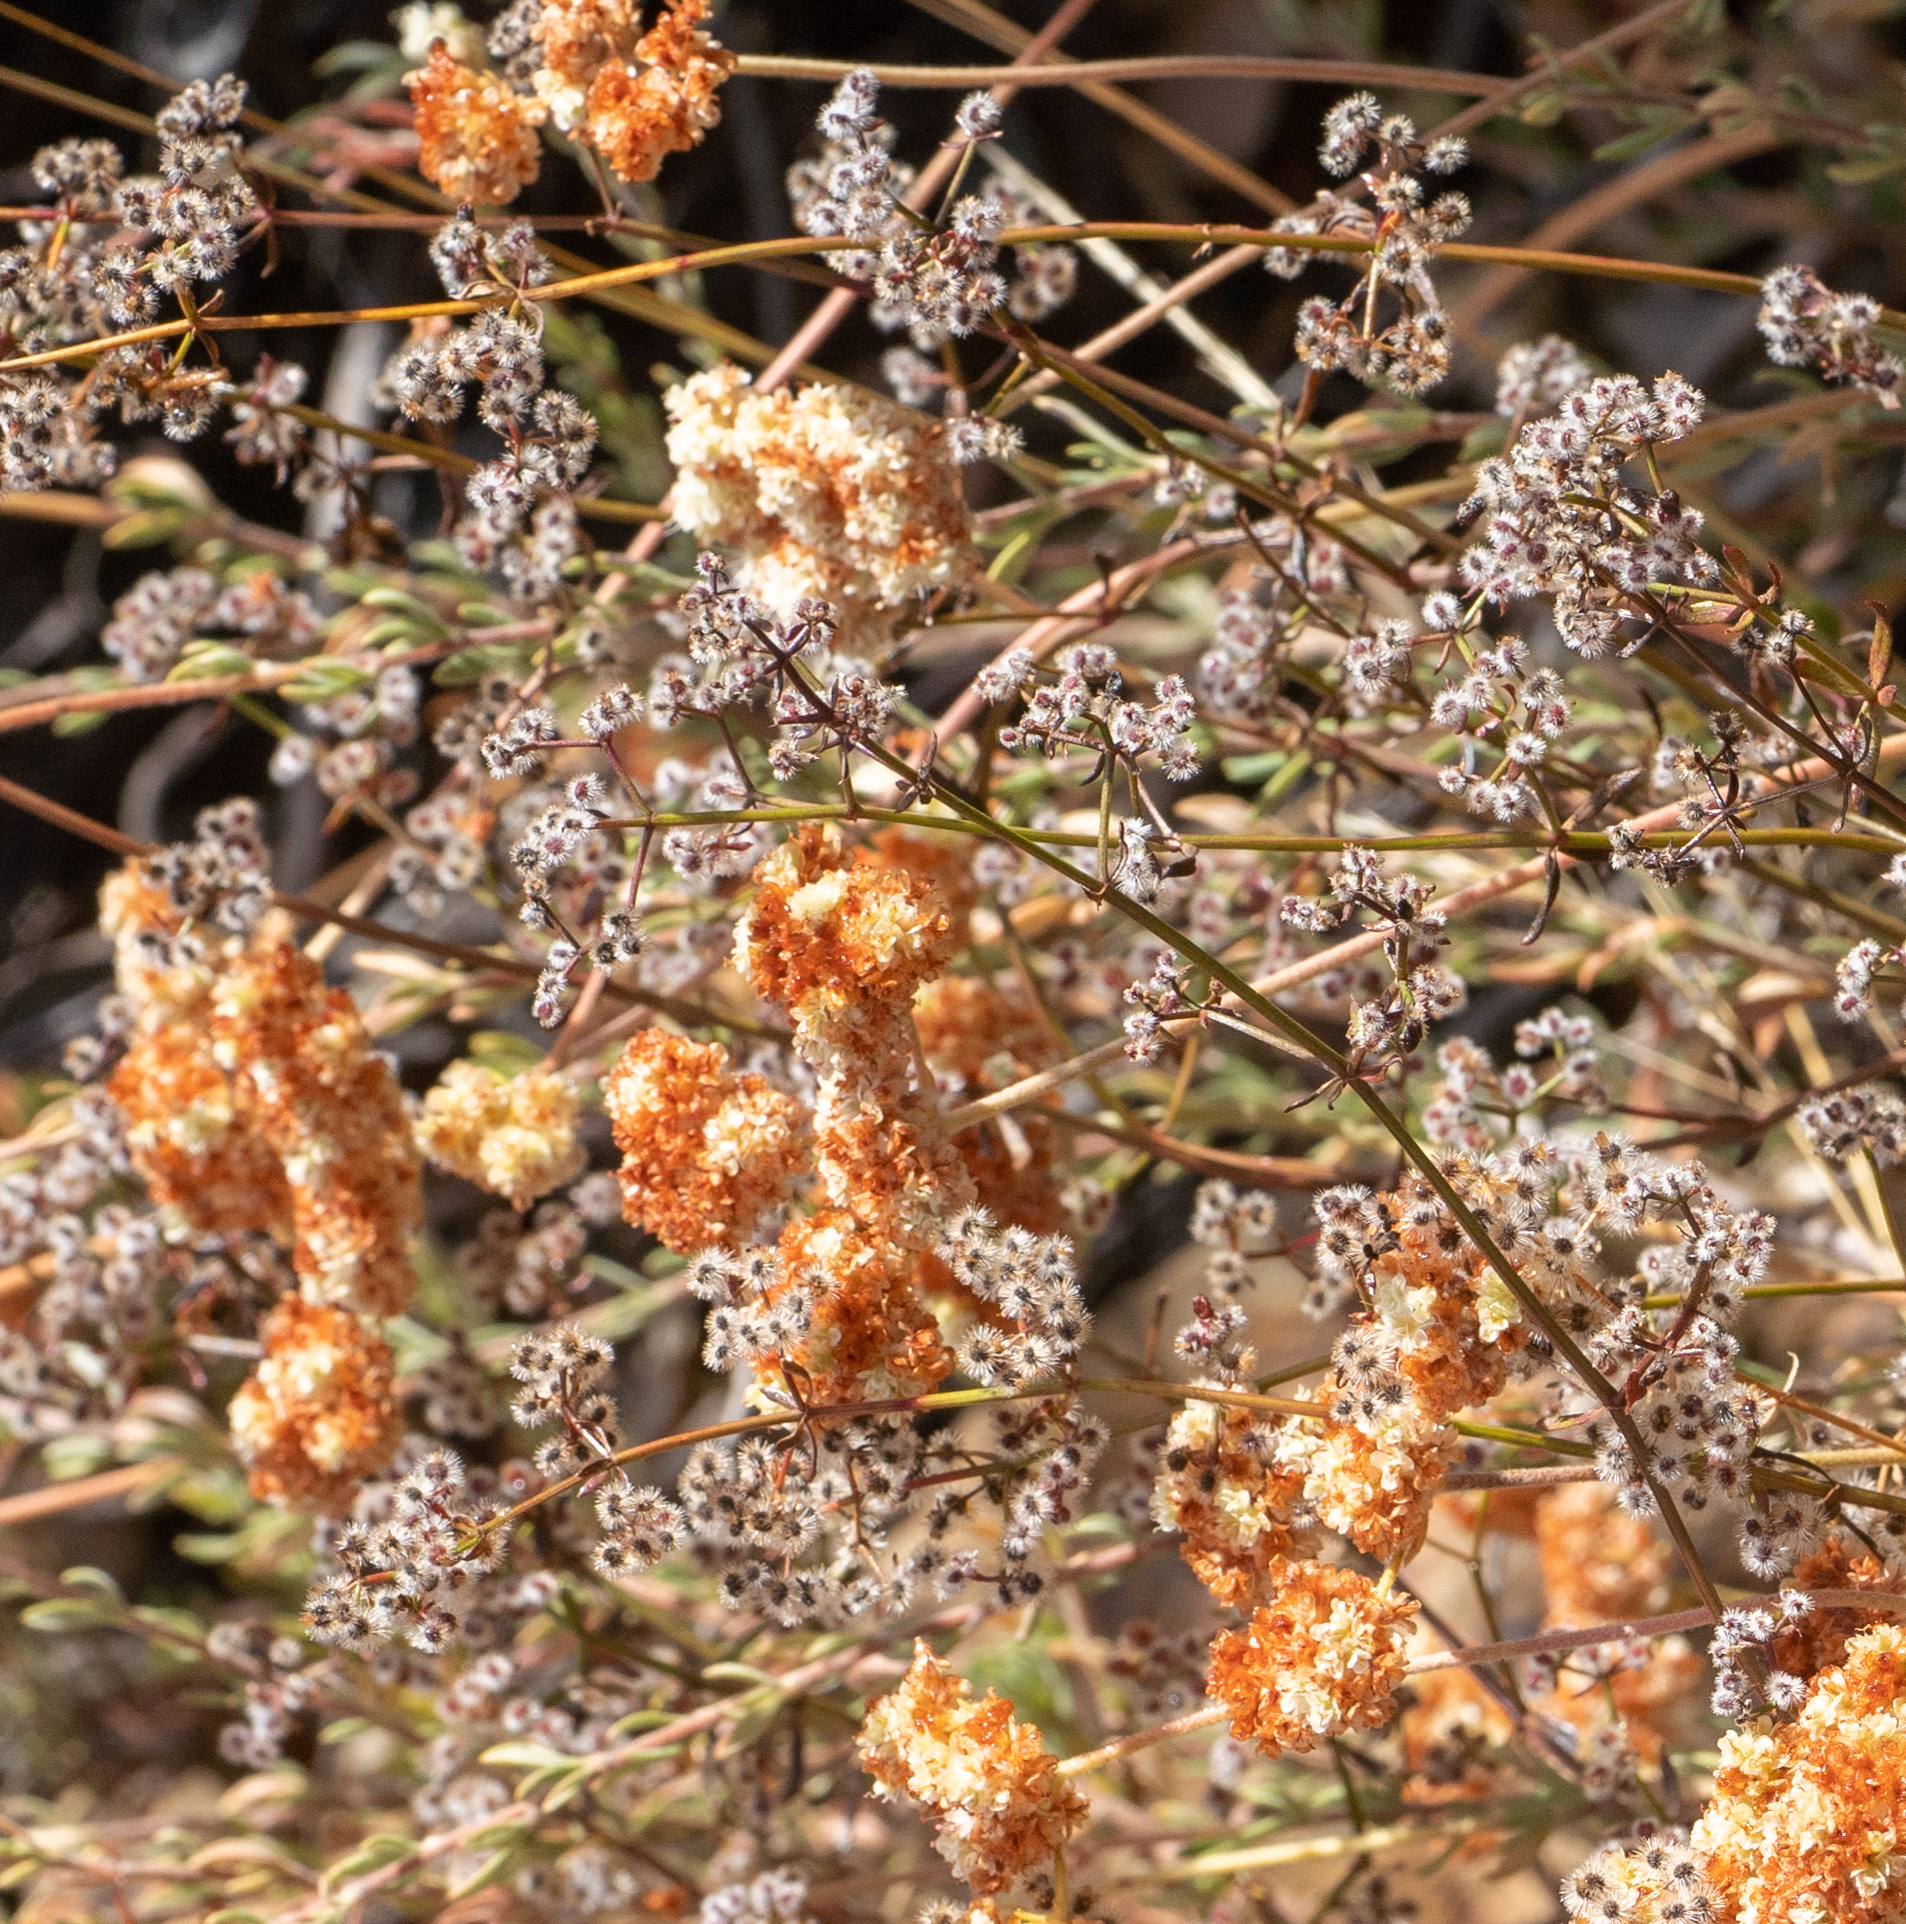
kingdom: Plantae
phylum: Tracheophyta
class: Magnoliopsida
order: Gentianales
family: Rubiaceae
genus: Galium
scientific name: Galium angustifolium
